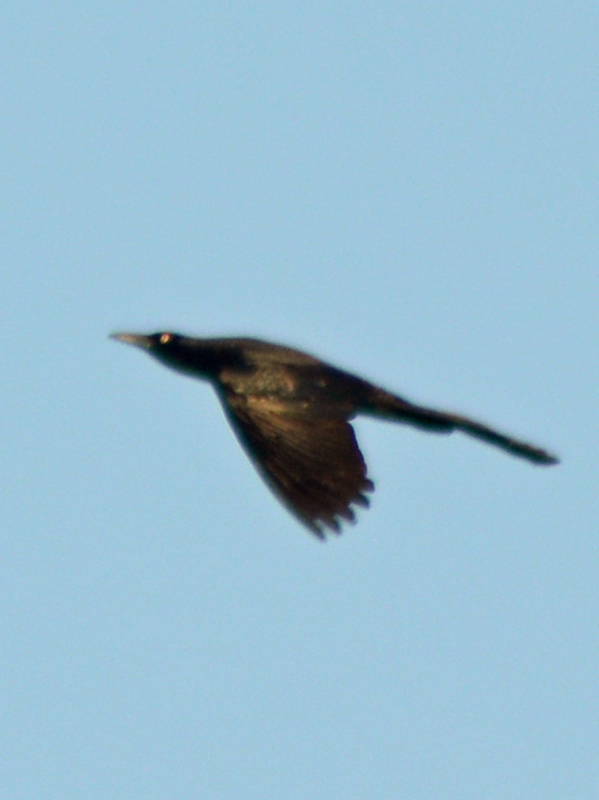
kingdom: Animalia
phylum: Chordata
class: Aves
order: Passeriformes
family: Icteridae
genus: Quiscalus
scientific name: Quiscalus mexicanus
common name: Great-tailed grackle
